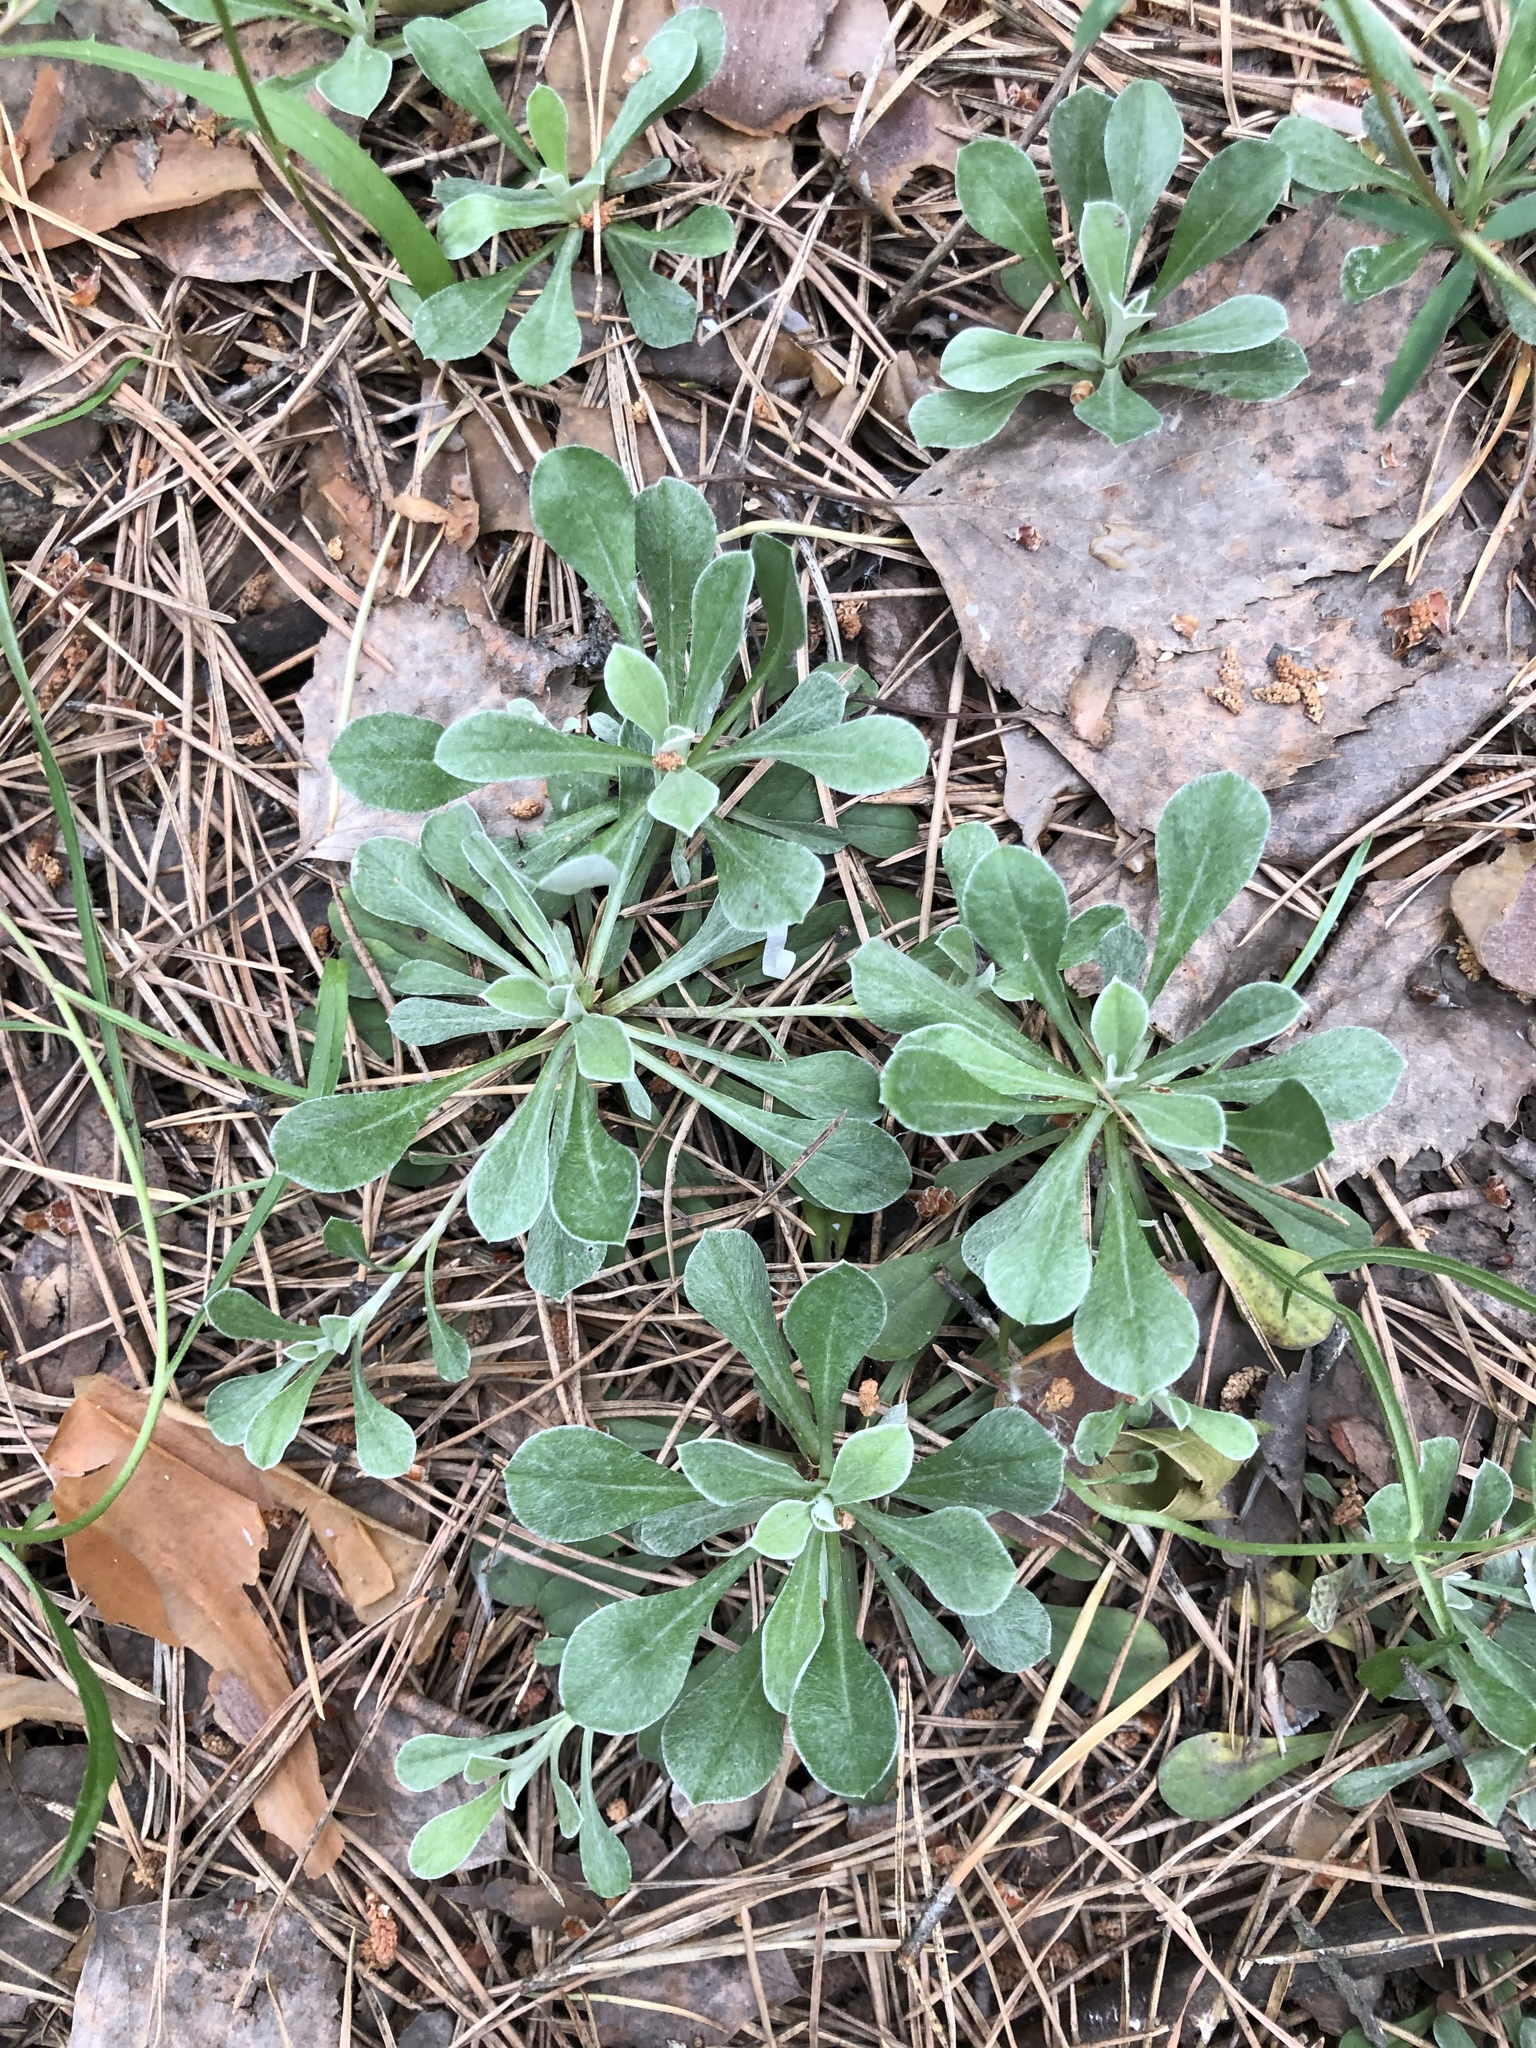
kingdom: Plantae
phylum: Tracheophyta
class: Magnoliopsida
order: Asterales
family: Asteraceae
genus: Antennaria
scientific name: Antennaria dioica
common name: Mountain everlasting
